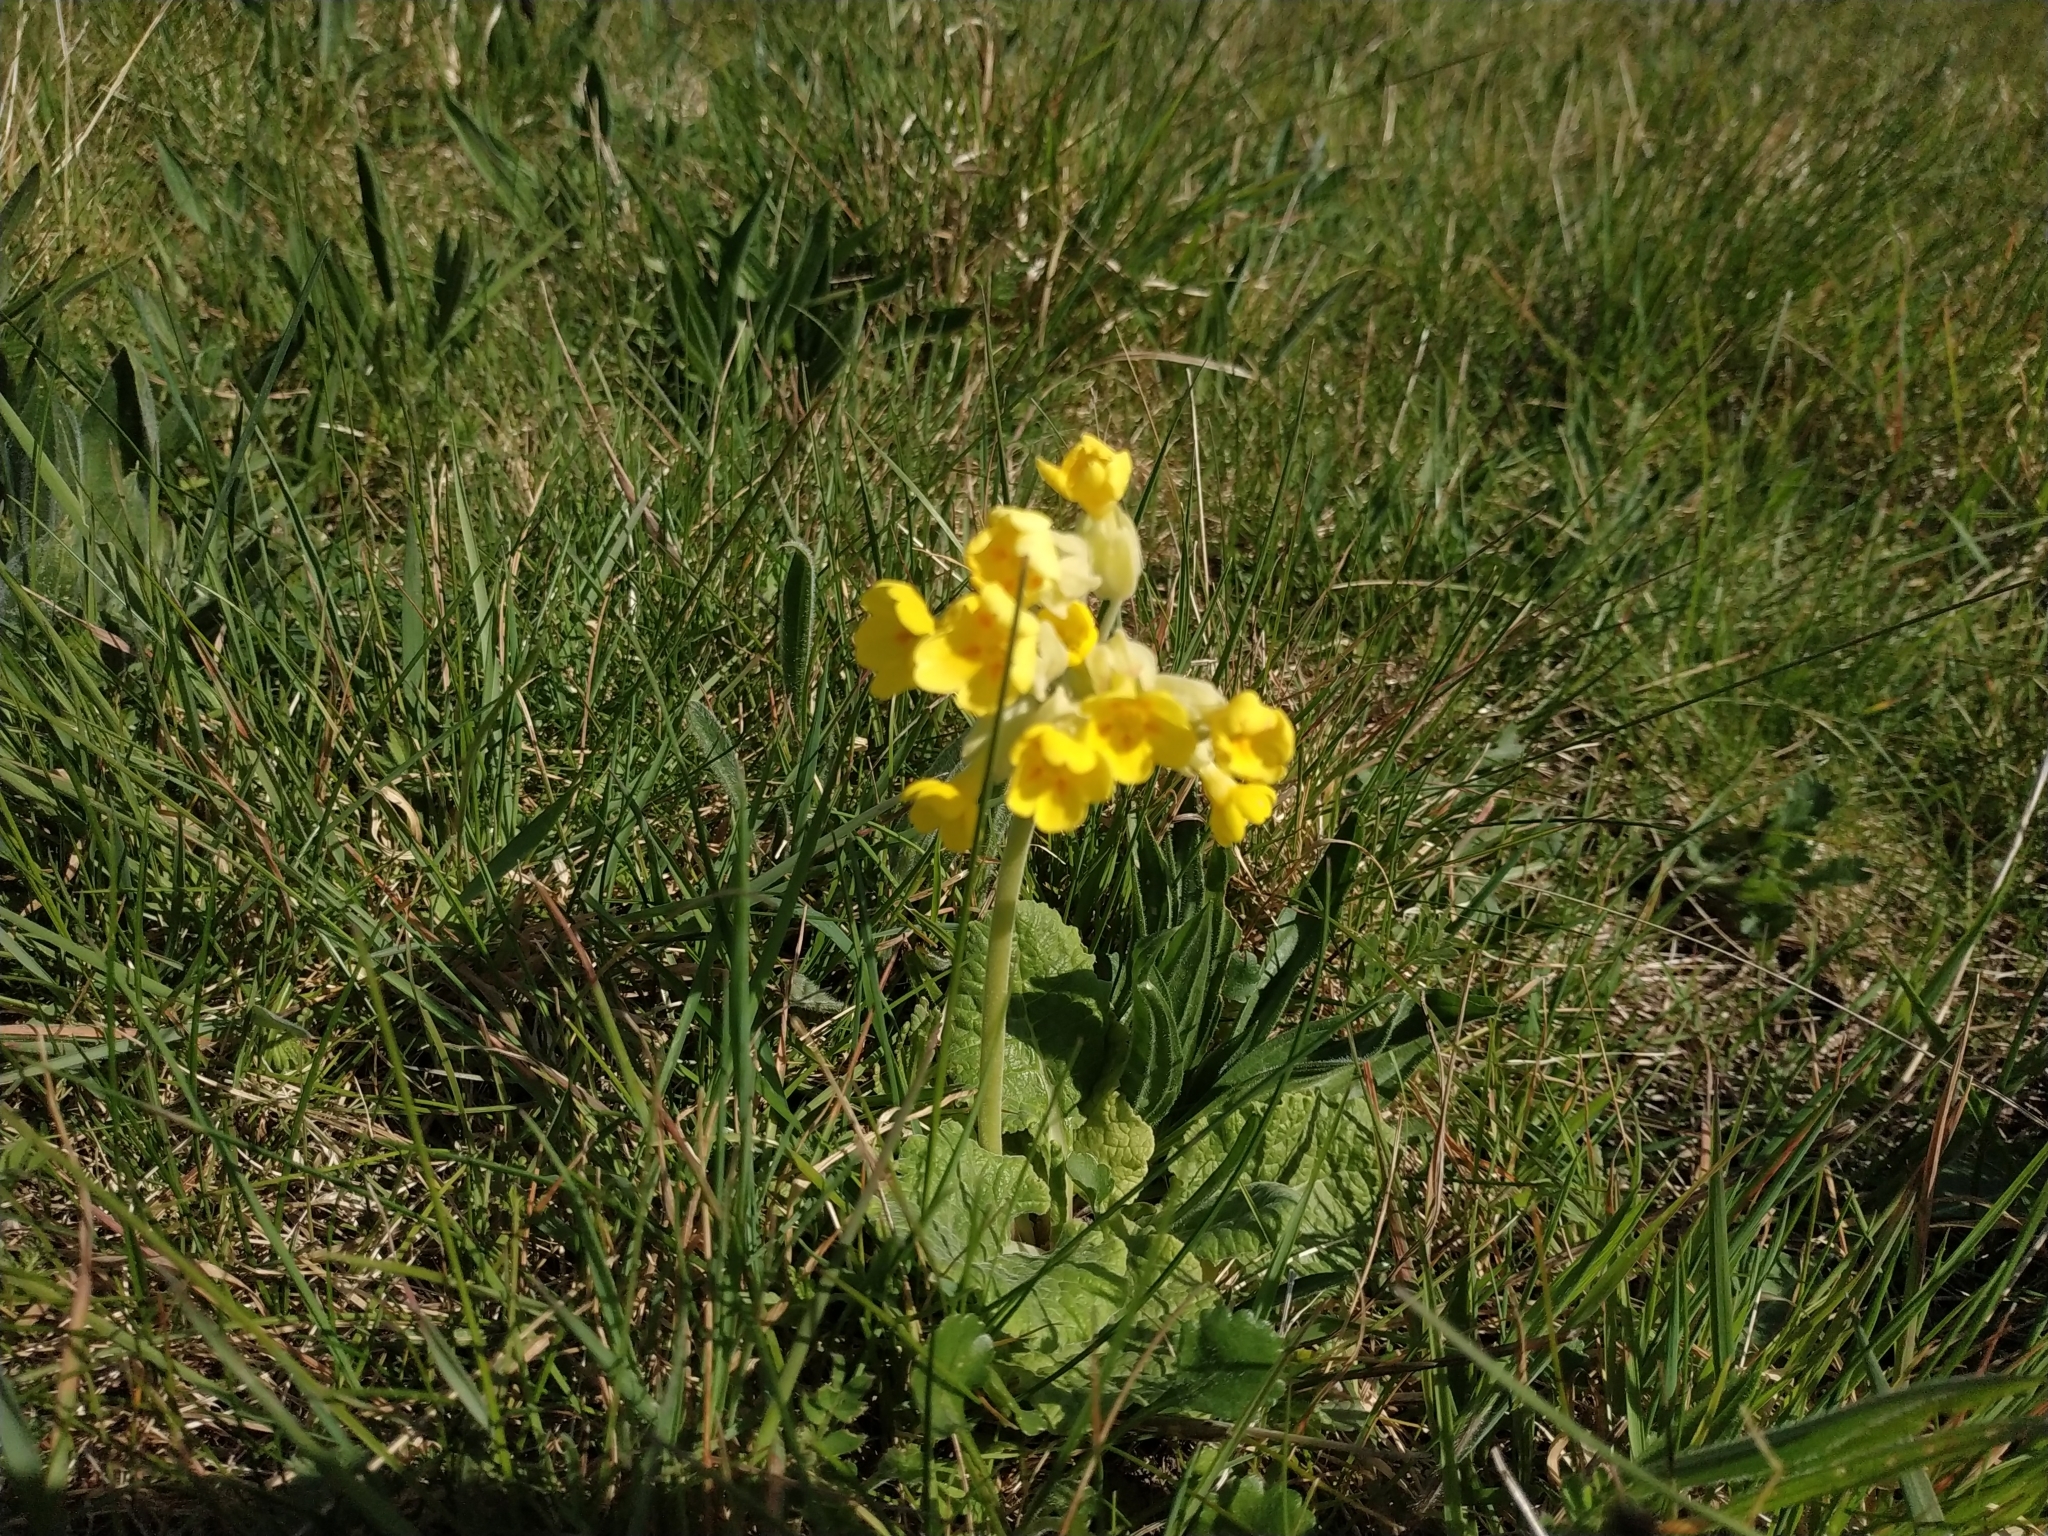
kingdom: Plantae
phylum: Tracheophyta
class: Magnoliopsida
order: Ericales
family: Primulaceae
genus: Primula
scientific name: Primula veris
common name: Cowslip
